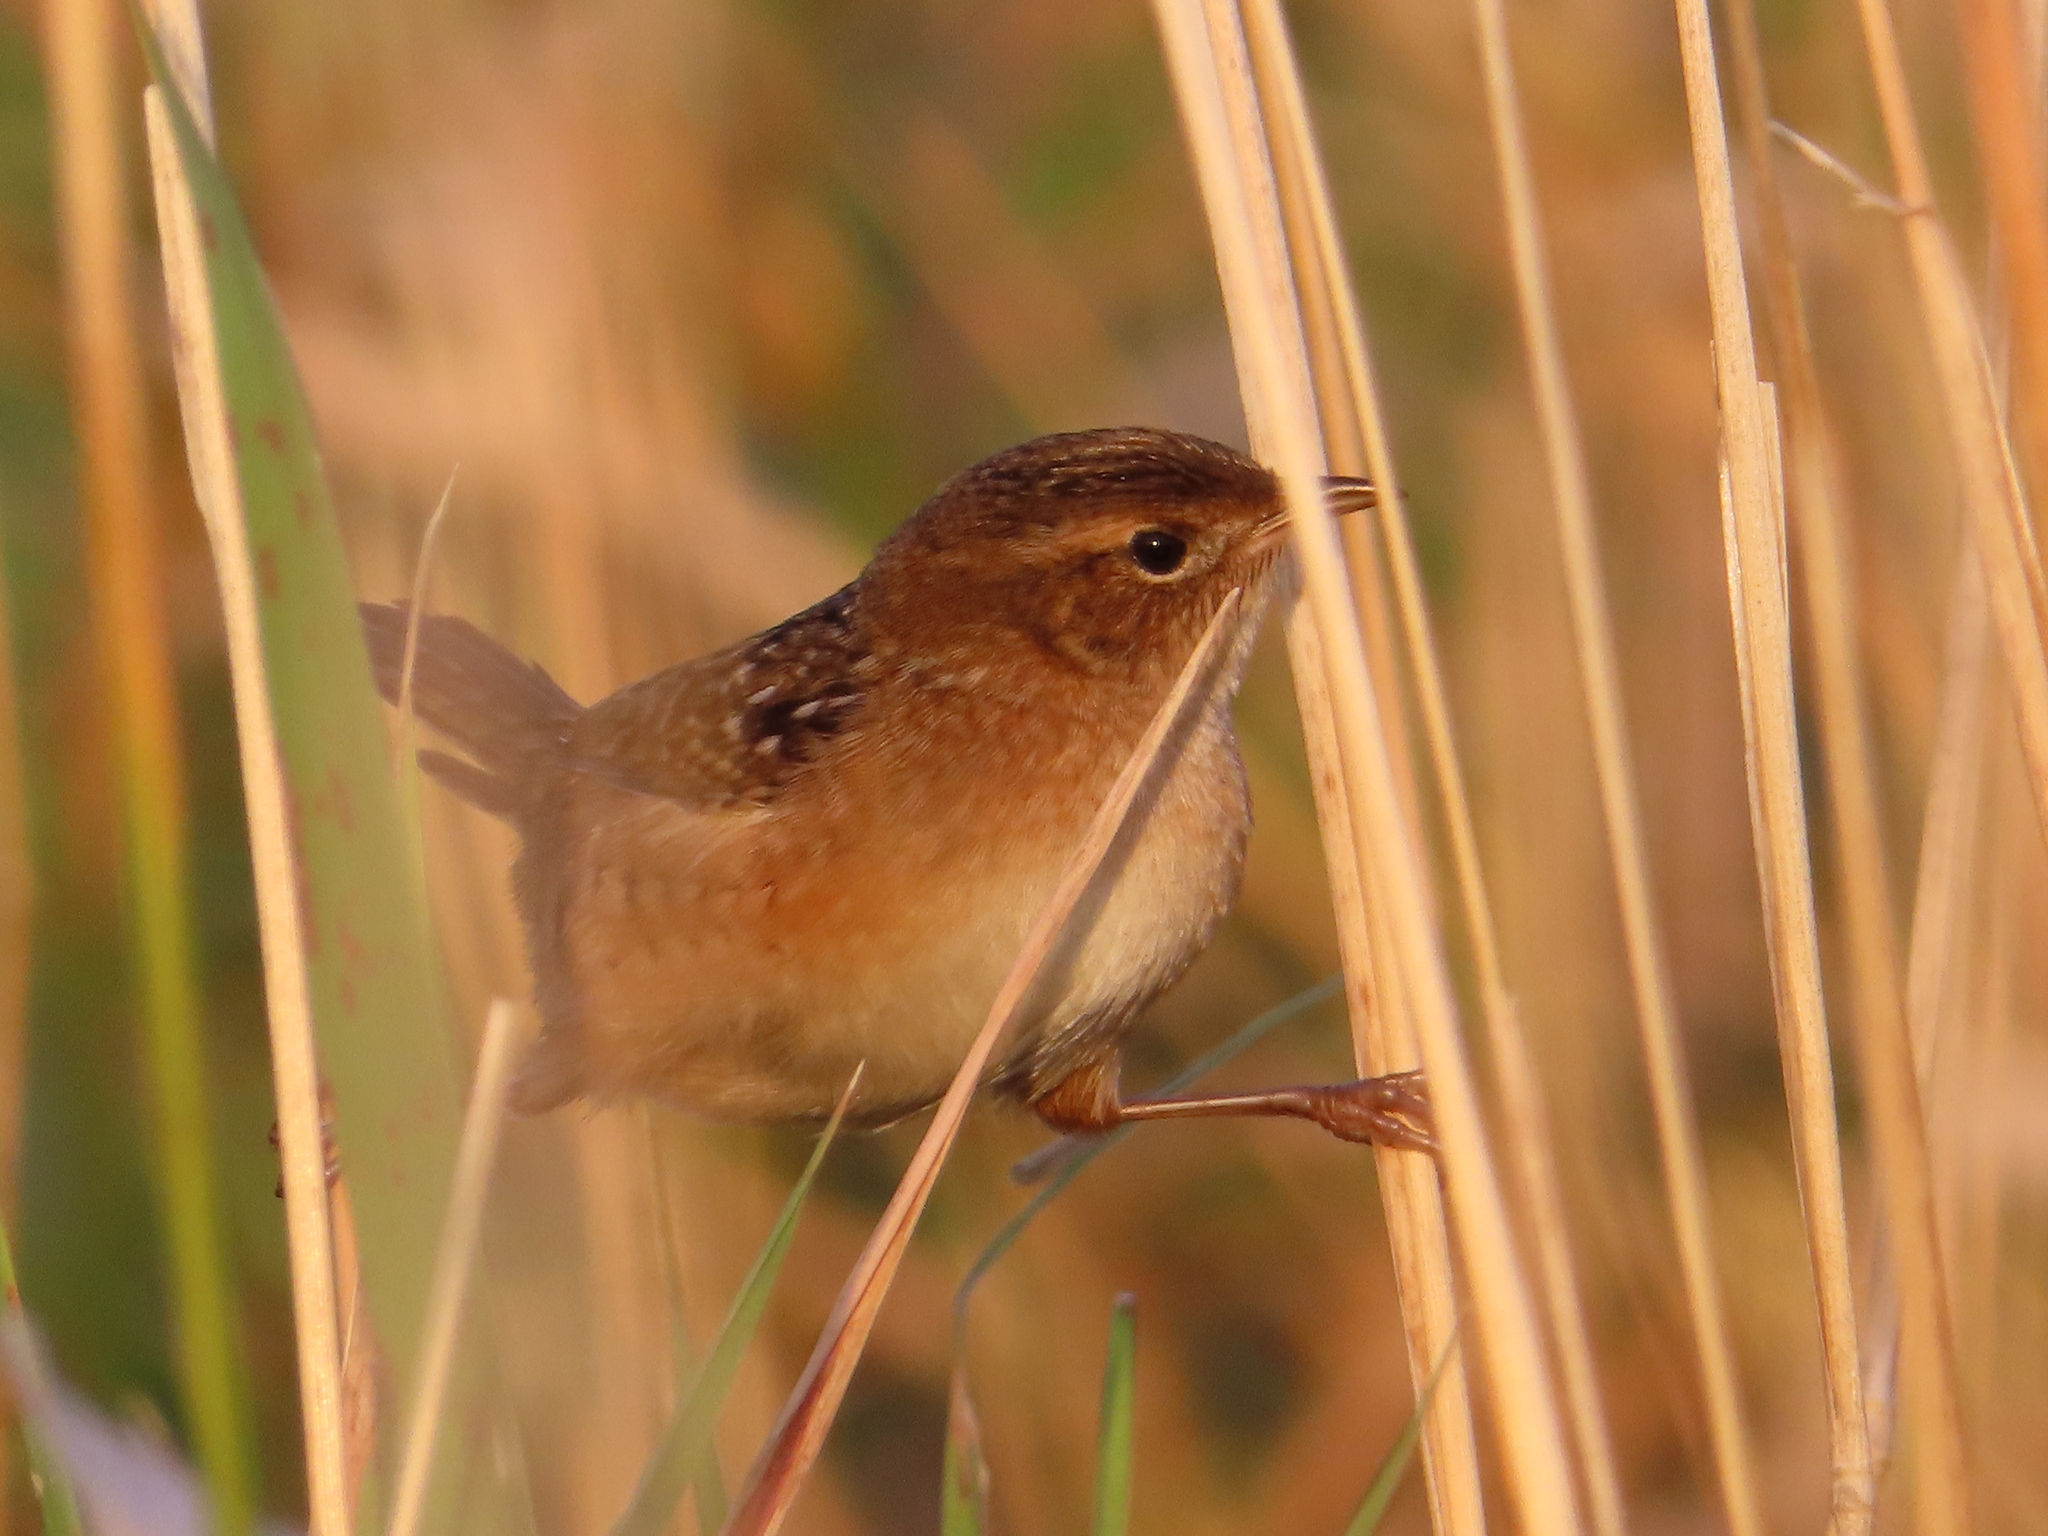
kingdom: Animalia
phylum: Chordata
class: Aves
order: Passeriformes
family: Troglodytidae
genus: Cistothorus
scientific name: Cistothorus platensis
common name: Sedge wren
